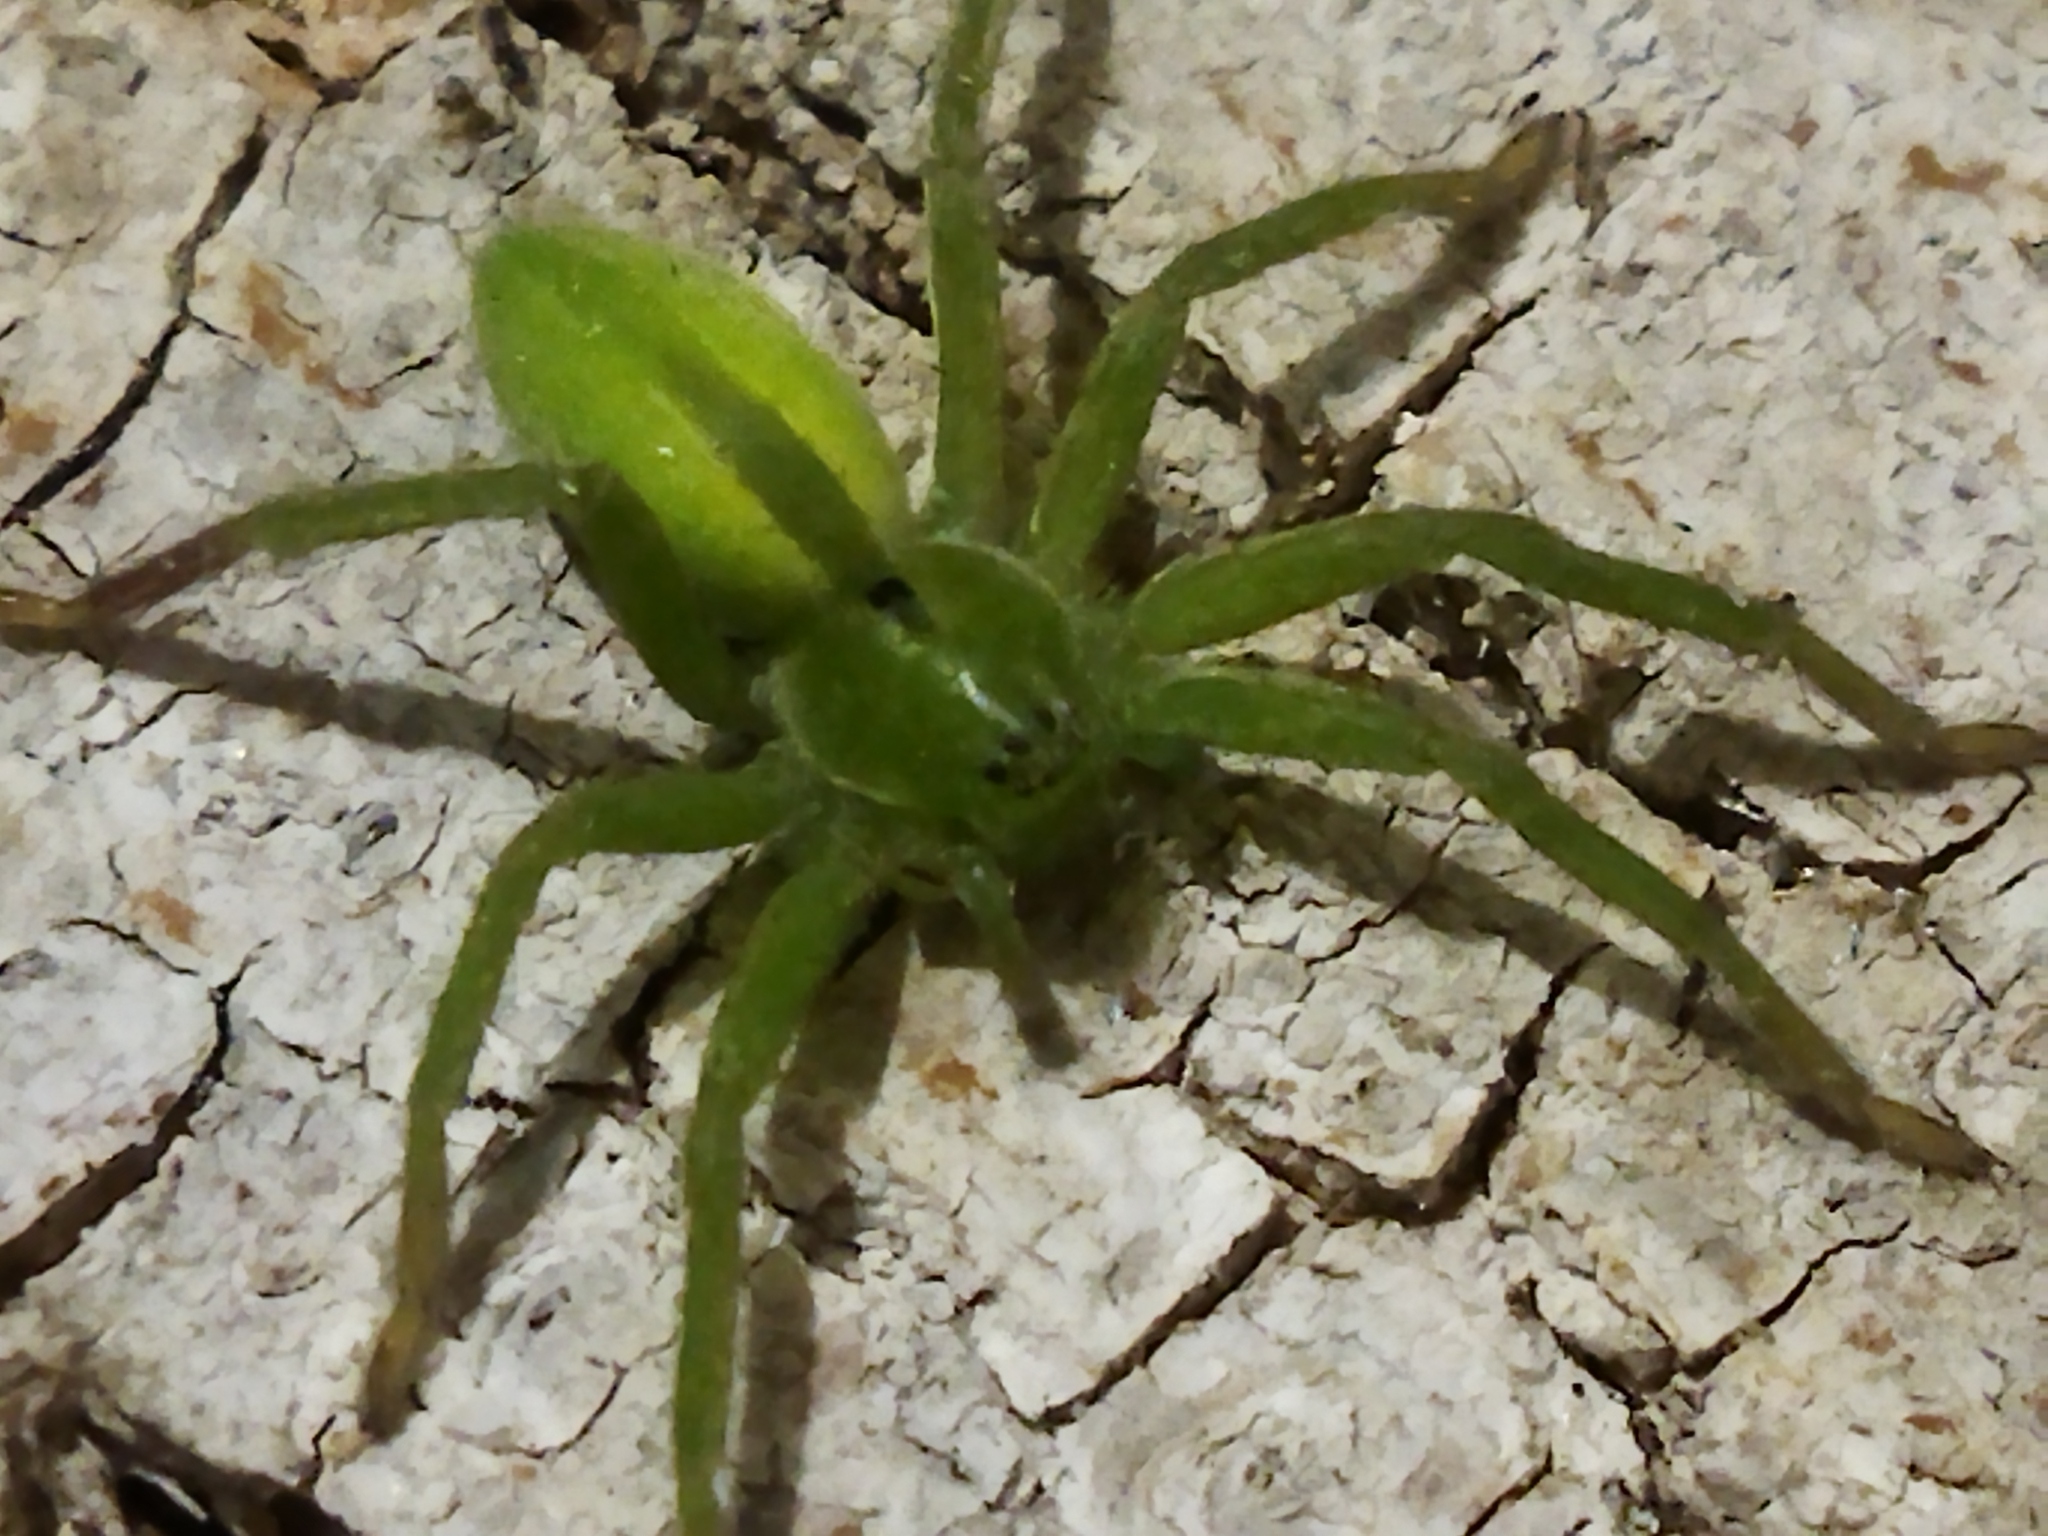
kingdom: Animalia
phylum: Arthropoda
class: Arachnida
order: Araneae
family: Sparassidae
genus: Micrommata
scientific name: Micrommata ligurina
